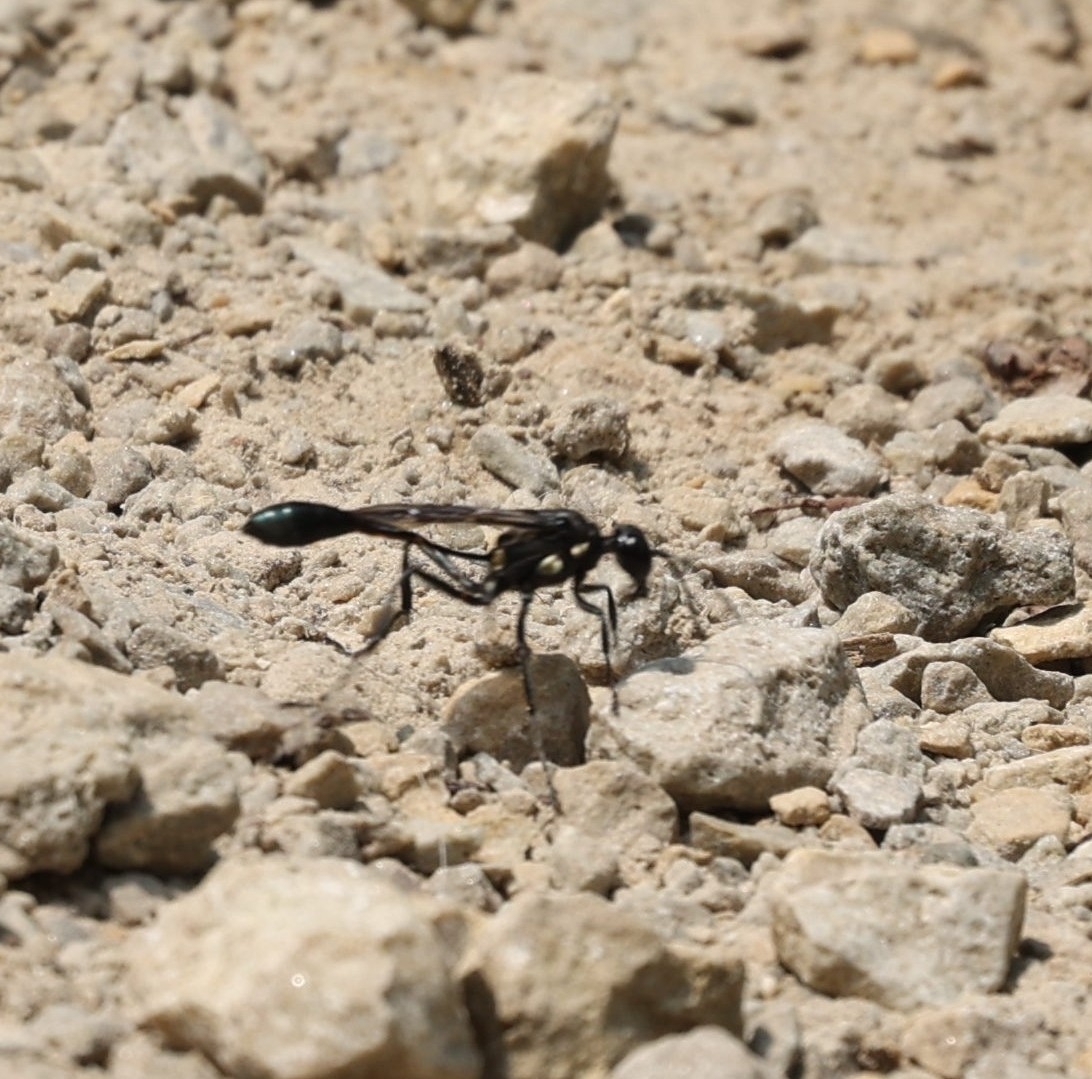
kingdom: Animalia
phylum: Arthropoda
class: Insecta
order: Hymenoptera
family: Sphecidae
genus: Eremnophila
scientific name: Eremnophila aureonotata
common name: Gold-marked thread-waisted wasp
